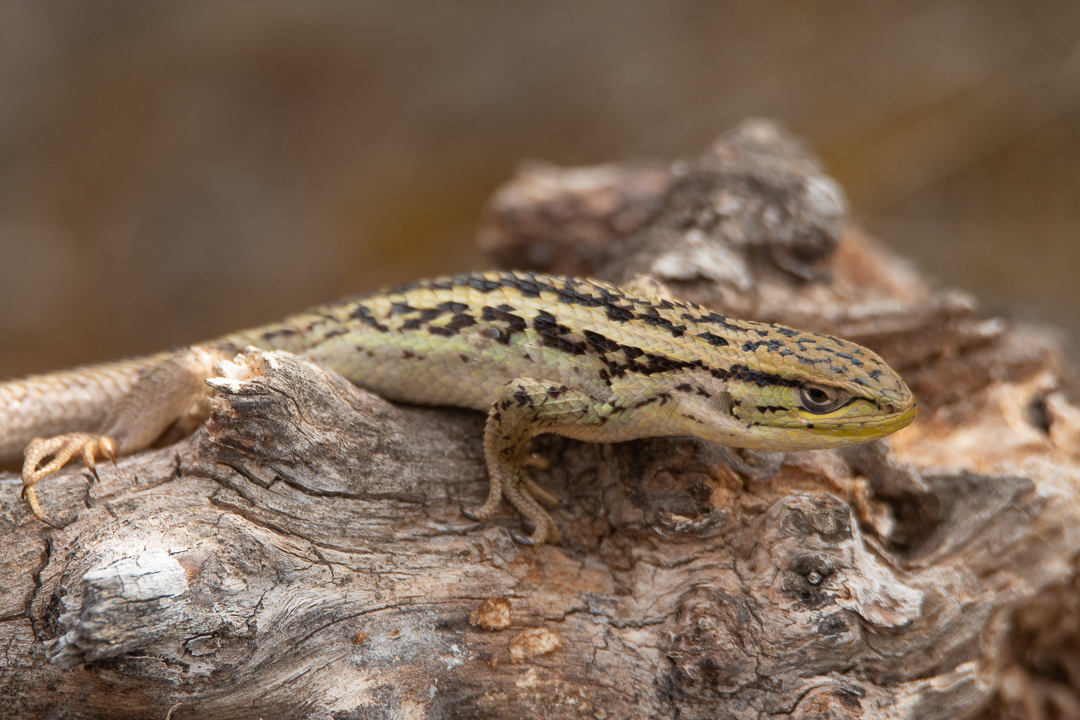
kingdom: Animalia
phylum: Chordata
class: Squamata
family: Liolaemidae
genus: Liolaemus
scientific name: Liolaemus chiliensis
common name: Chilean tree iguana
